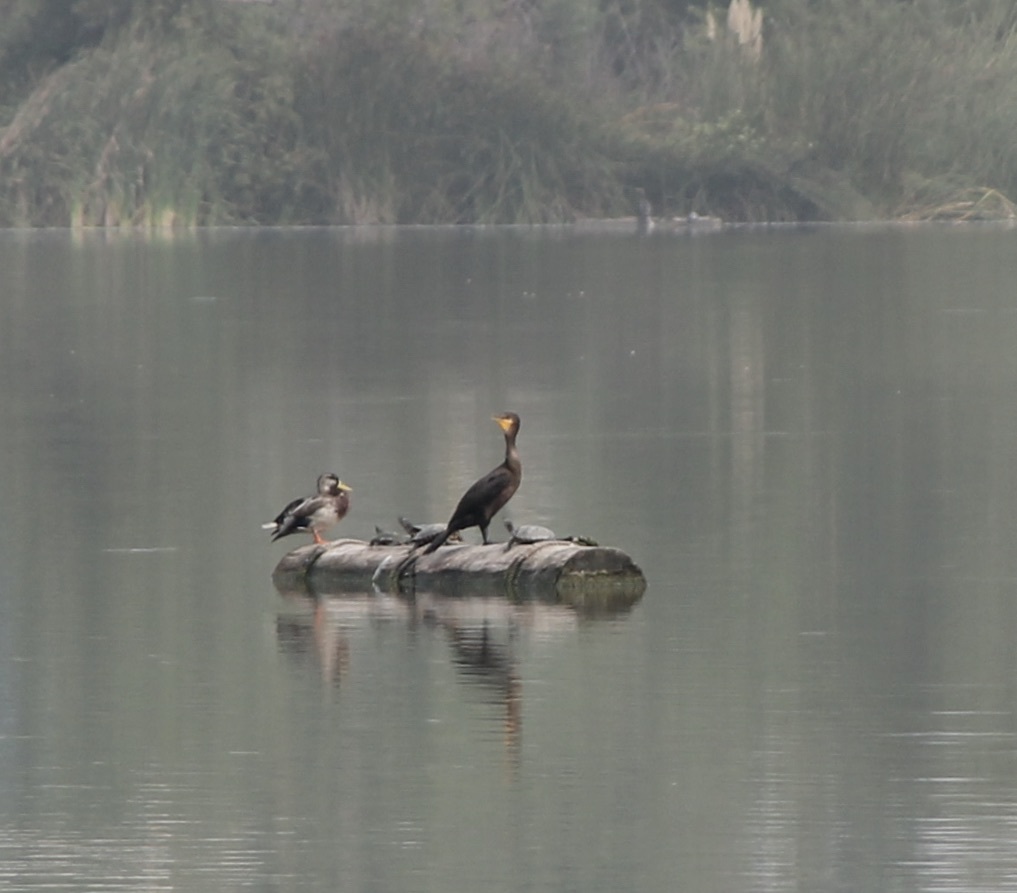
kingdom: Animalia
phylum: Chordata
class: Aves
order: Suliformes
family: Phalacrocoracidae
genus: Phalacrocorax
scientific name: Phalacrocorax auritus
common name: Double-crested cormorant
